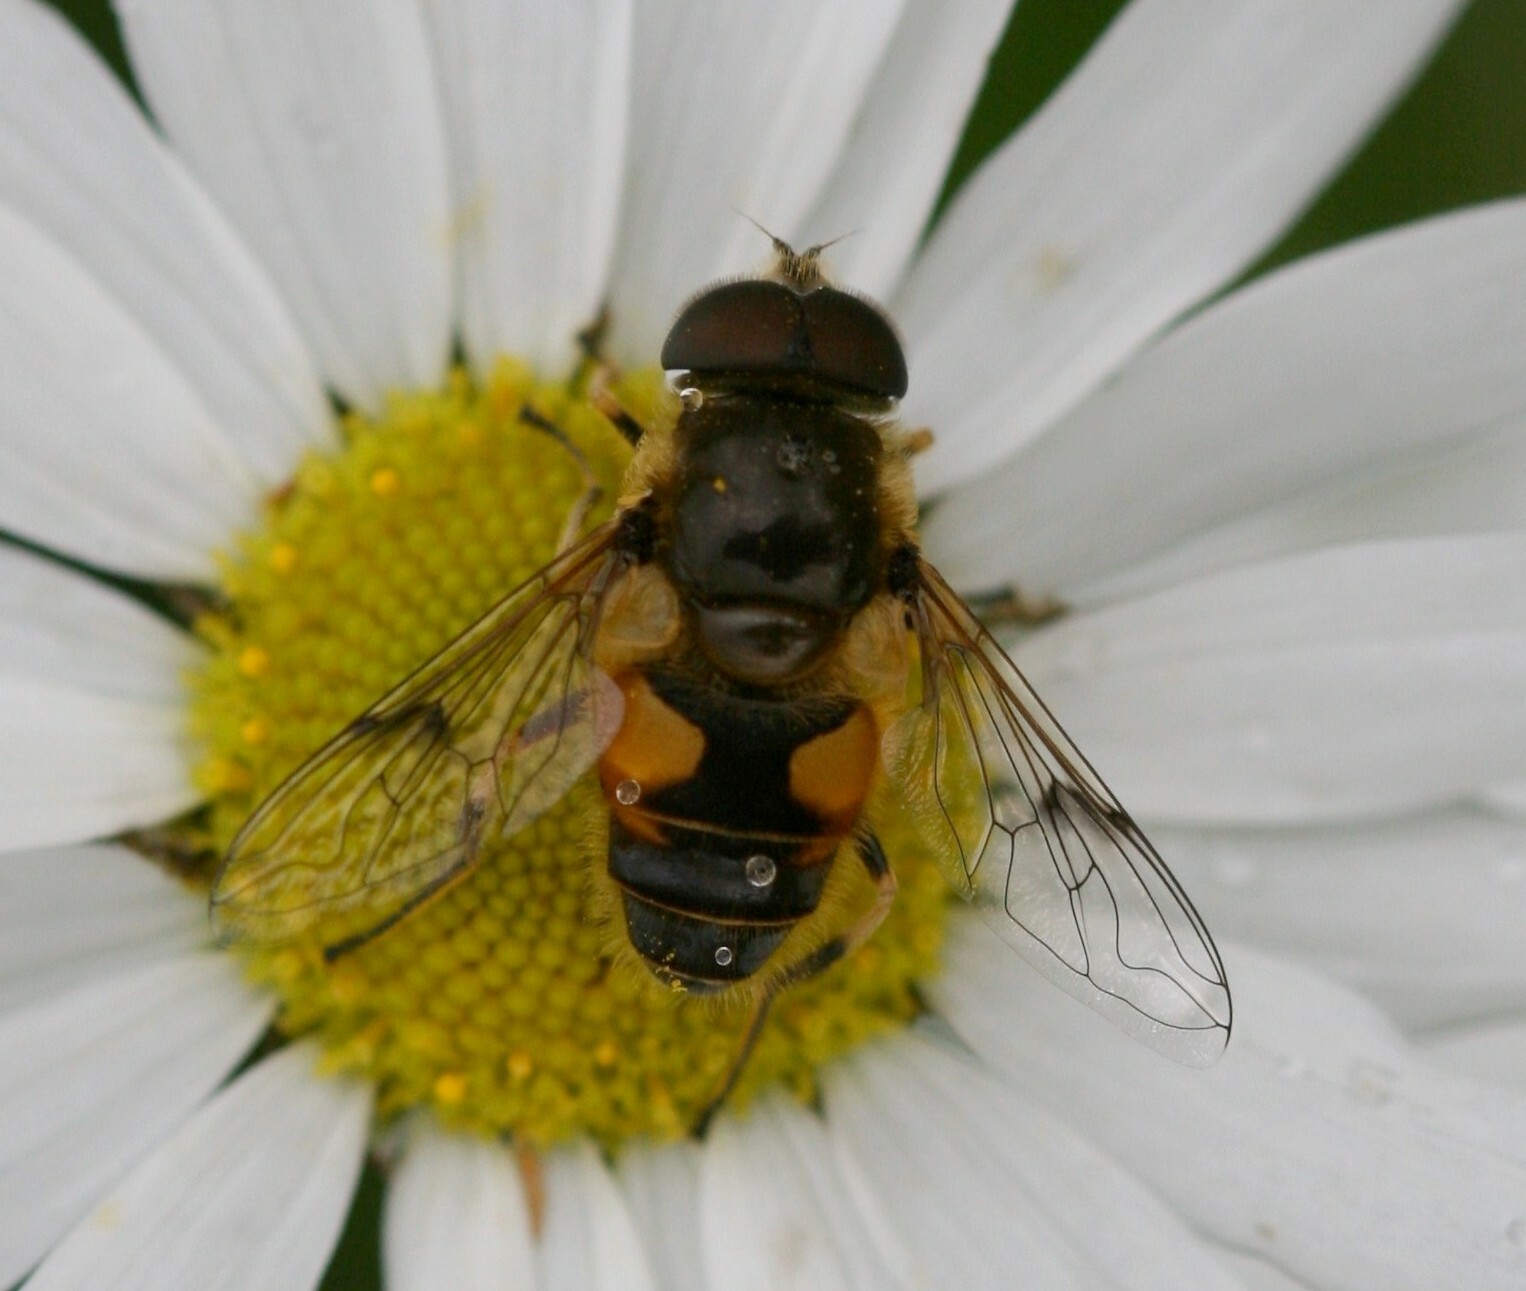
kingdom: Animalia
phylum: Arthropoda
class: Insecta
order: Diptera
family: Syrphidae
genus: Cheilosia
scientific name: Cheilosia morio
